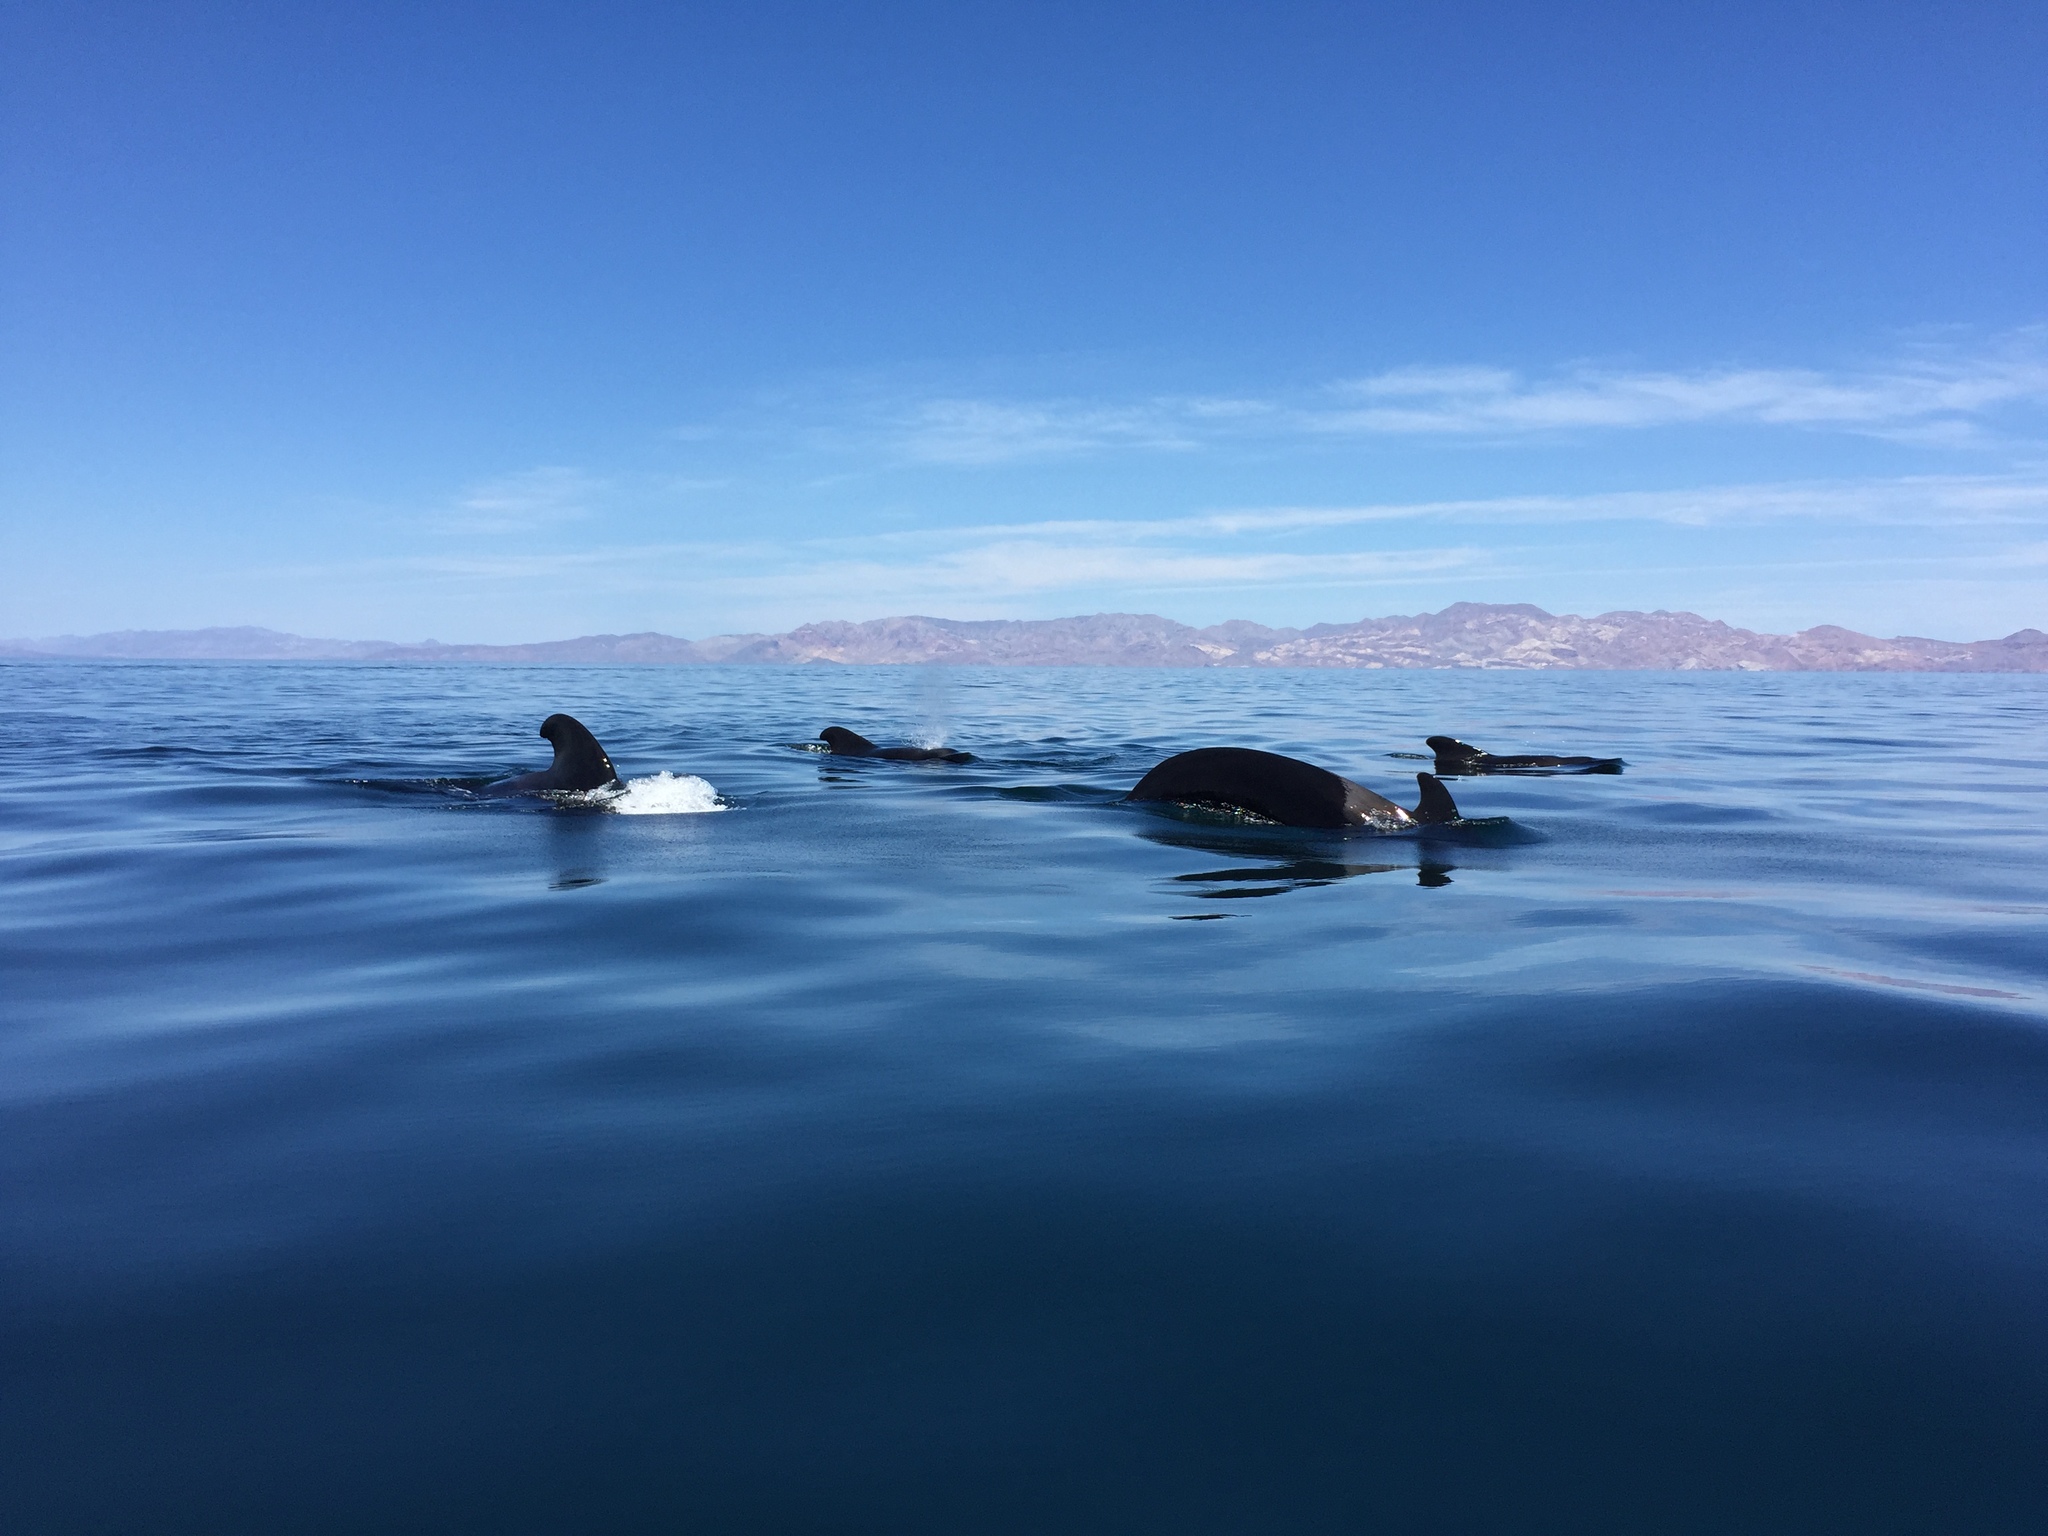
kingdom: Animalia
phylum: Chordata
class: Mammalia
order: Cetacea
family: Delphinidae
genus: Globicephala
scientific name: Globicephala macrorhynchus
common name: Short-finned pilot whale
